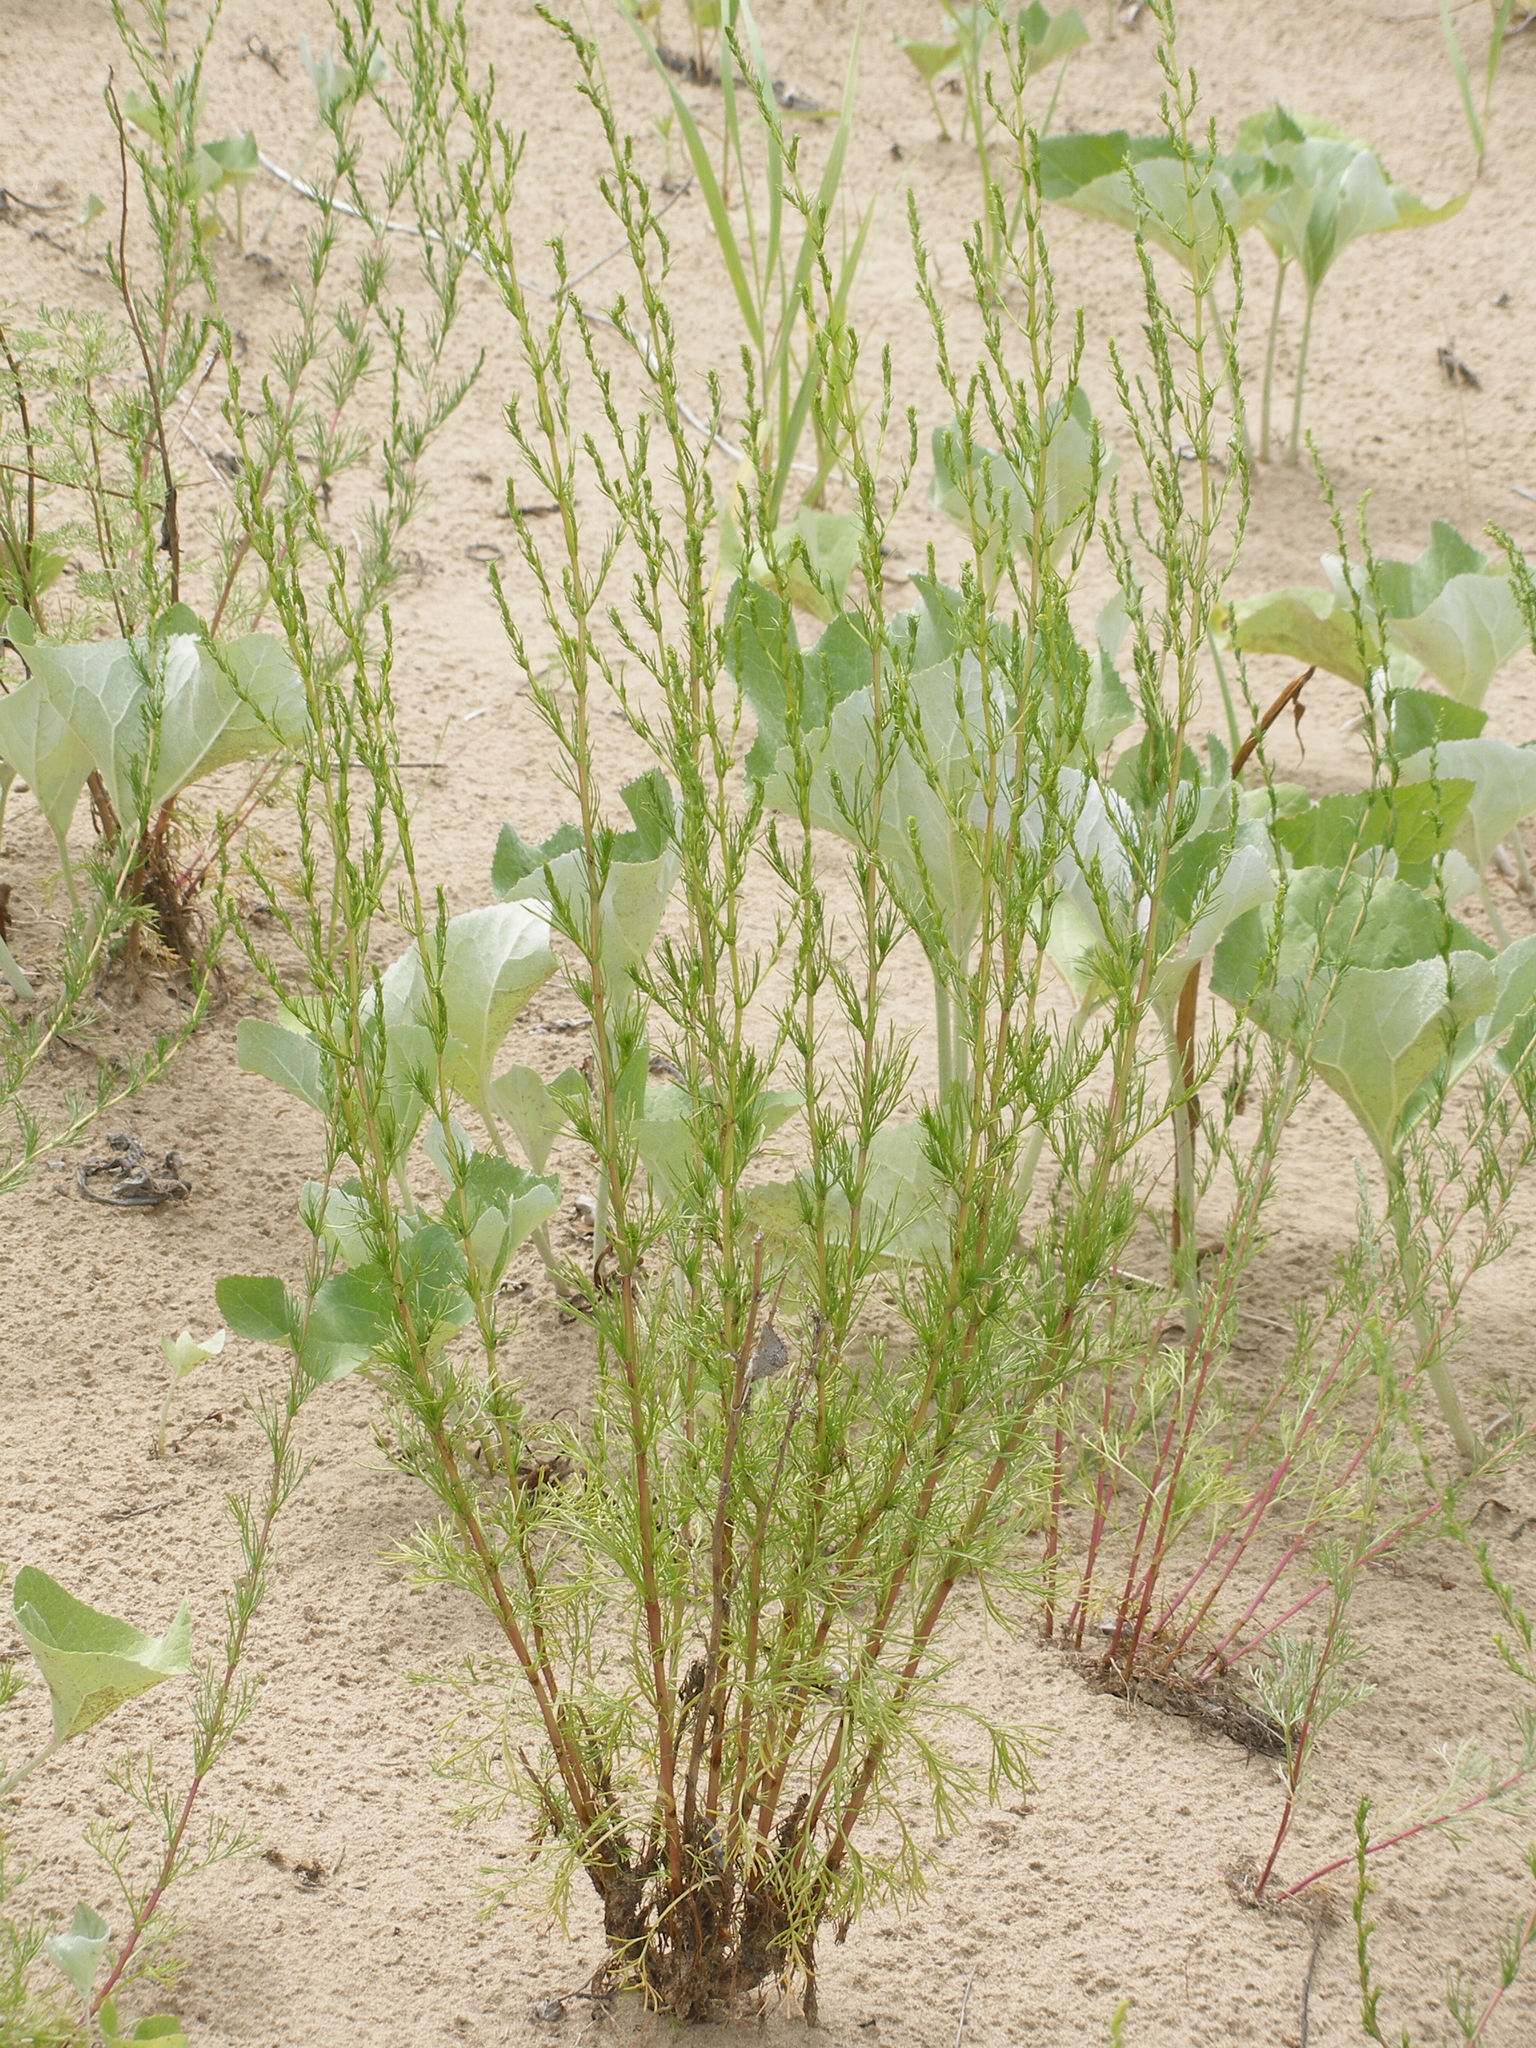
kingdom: Plantae
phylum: Tracheophyta
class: Magnoliopsida
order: Asterales
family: Asteraceae
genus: Artemisia
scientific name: Artemisia campestris
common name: Field wormwood
